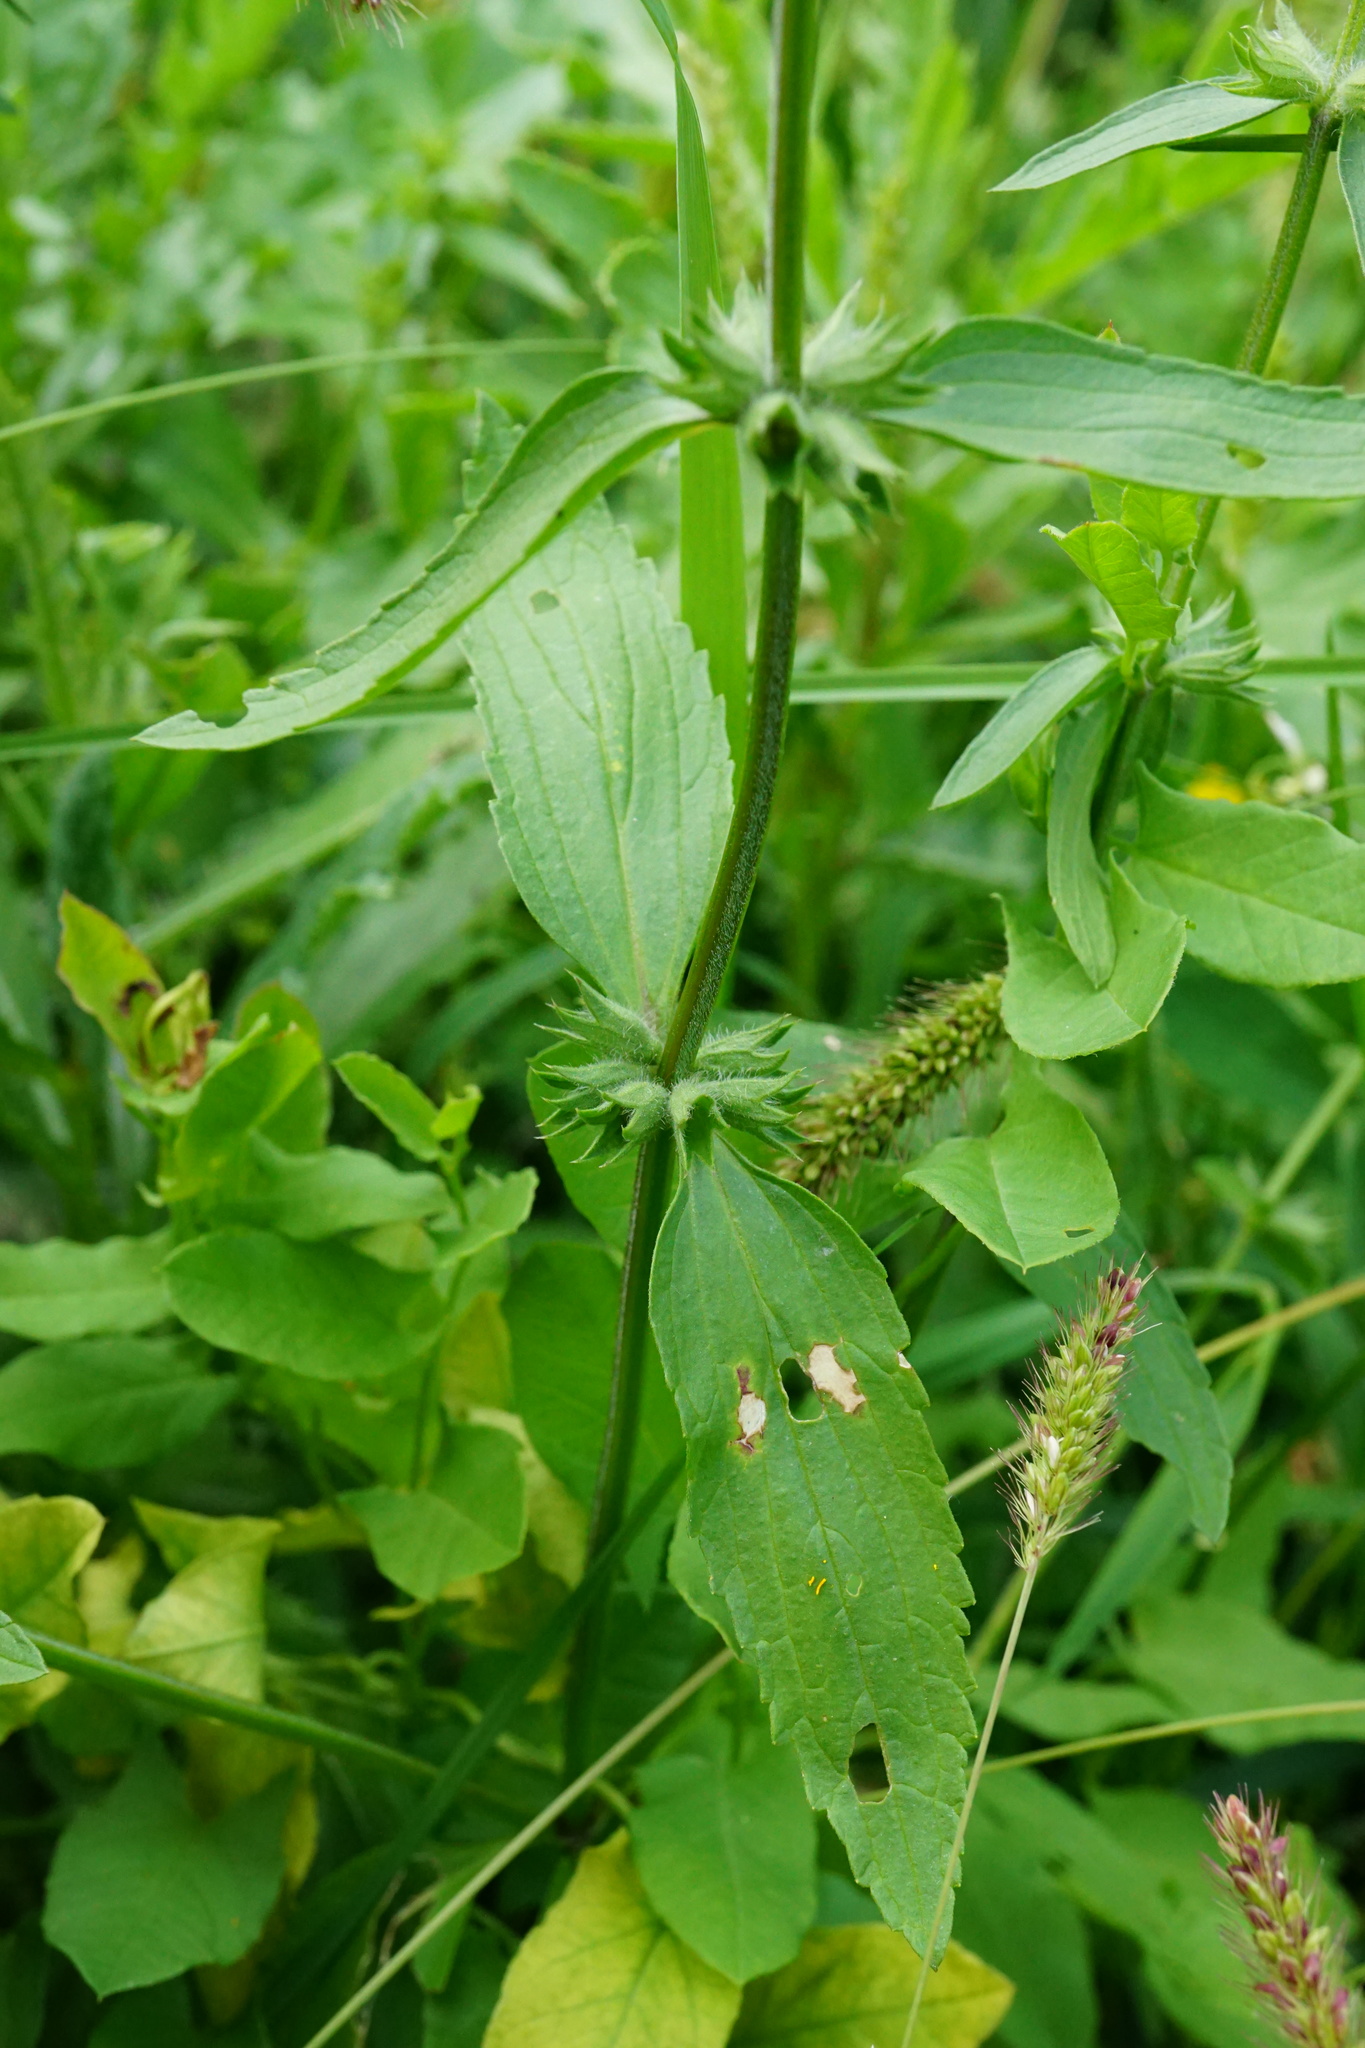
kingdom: Plantae
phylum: Tracheophyta
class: Magnoliopsida
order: Lamiales
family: Lamiaceae
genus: Stachys
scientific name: Stachys annua
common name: Annual yellow-woundwort
